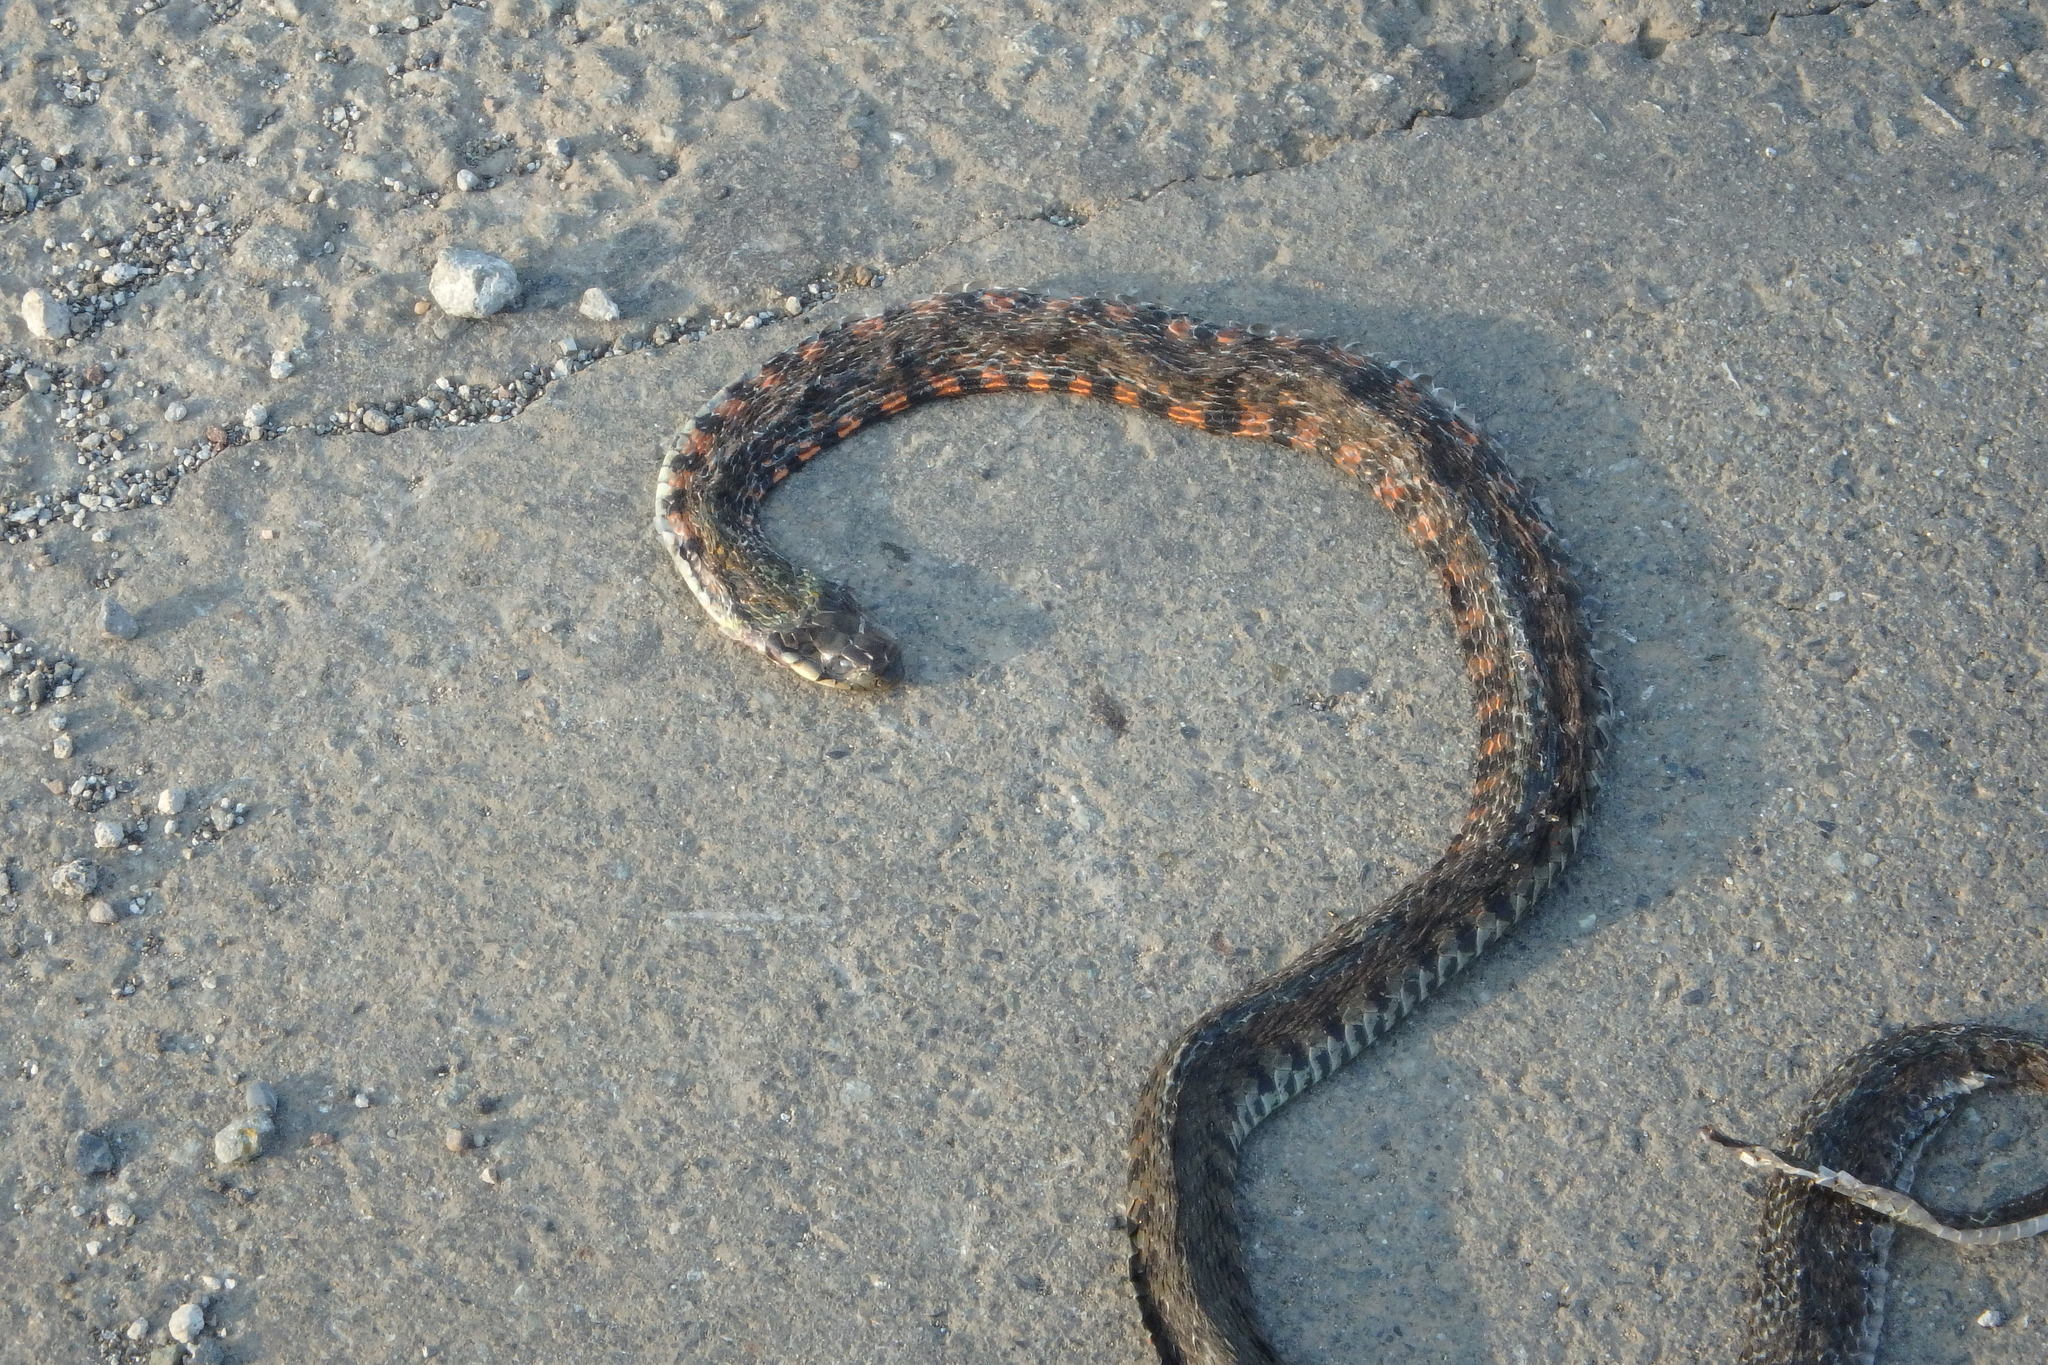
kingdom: Animalia
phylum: Chordata
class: Squamata
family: Colubridae
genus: Rhabdophis
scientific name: Rhabdophis tigrinus
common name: Tiger keelback
